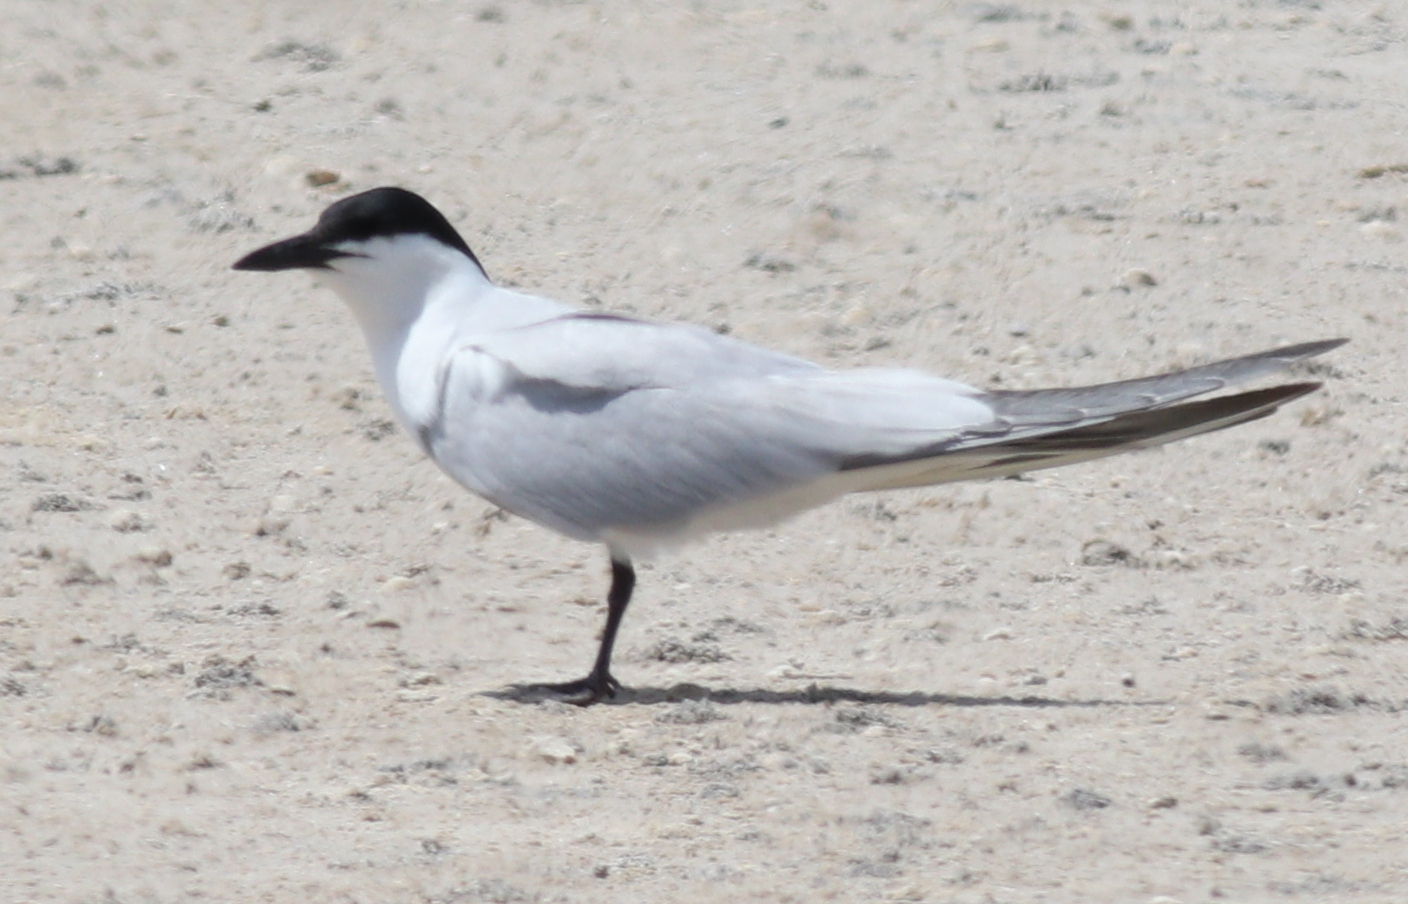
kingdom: Animalia
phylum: Chordata
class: Aves
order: Charadriiformes
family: Laridae
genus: Gelochelidon
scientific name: Gelochelidon nilotica
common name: Gull-billed tern
